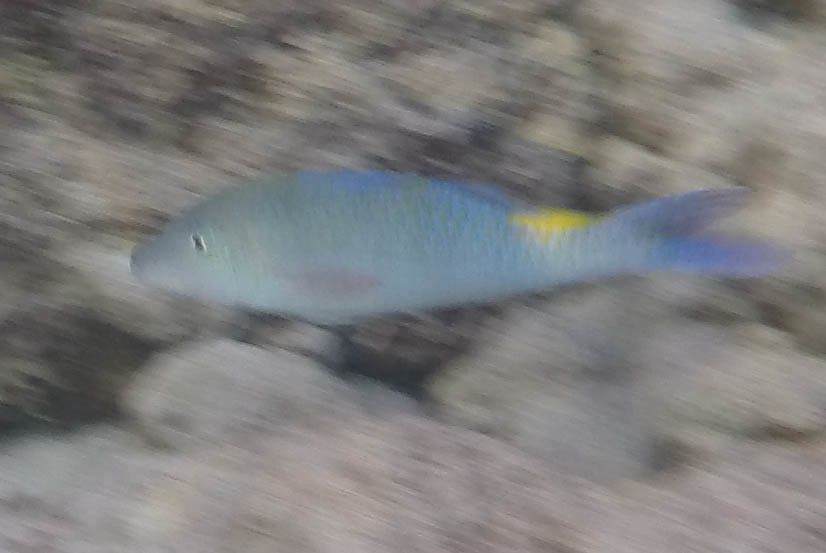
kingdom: Animalia
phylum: Chordata
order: Perciformes
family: Mullidae
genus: Parupeneus
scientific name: Parupeneus cyclostomus
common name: Goldsaddle goatfish
